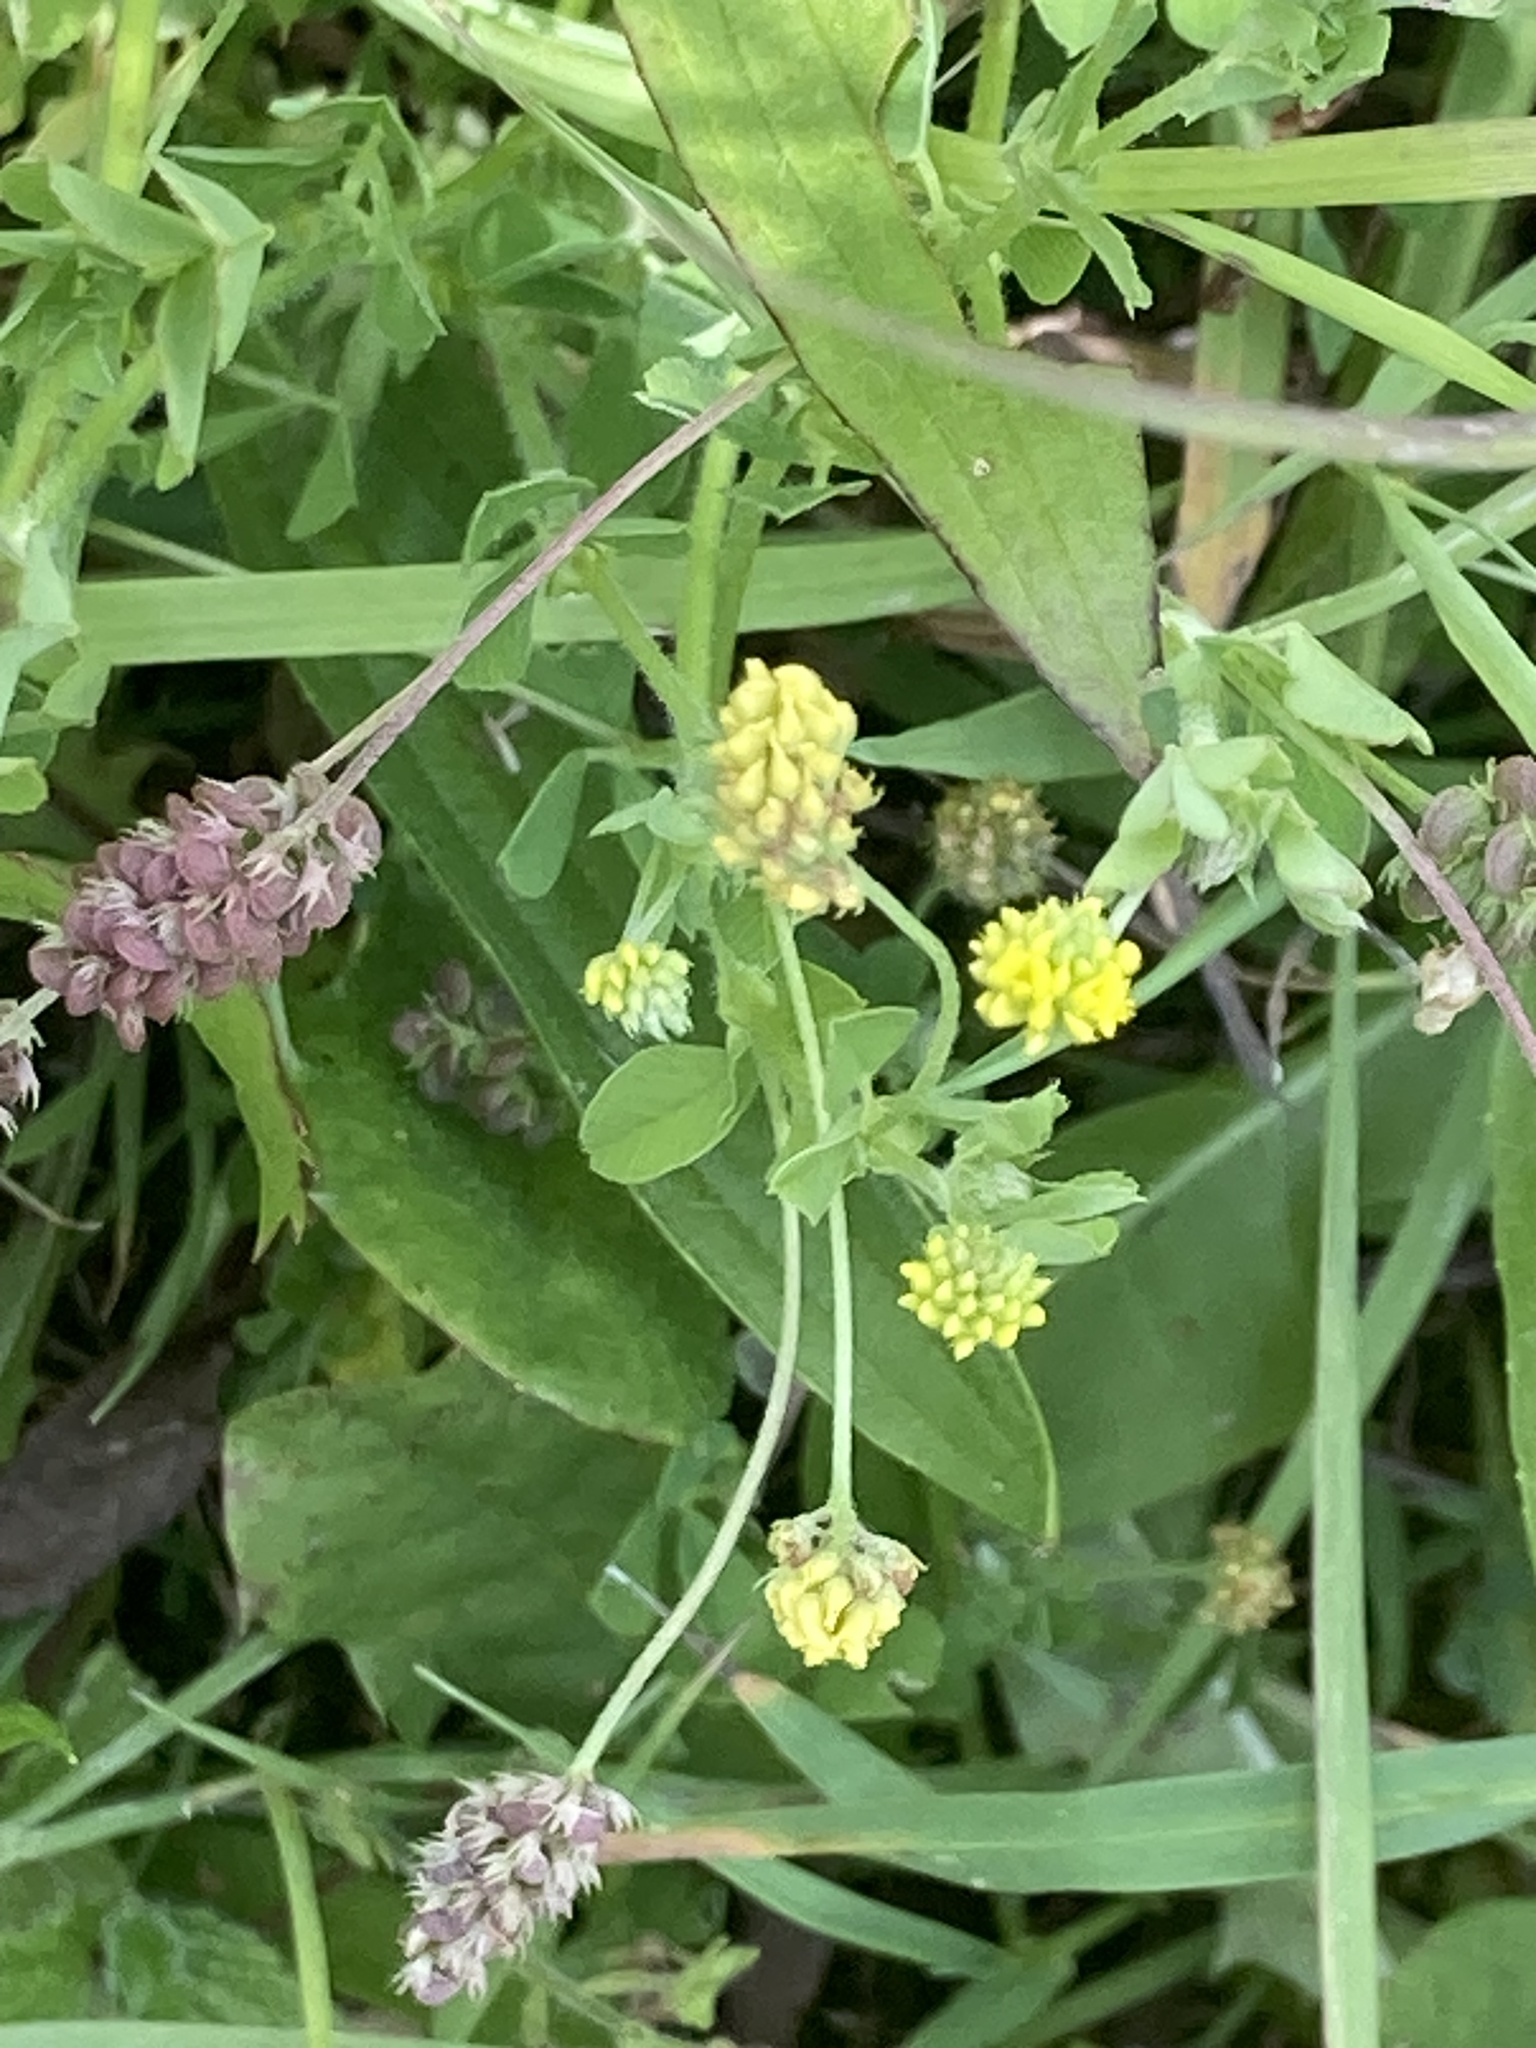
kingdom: Plantae
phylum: Tracheophyta
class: Magnoliopsida
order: Fabales
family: Fabaceae
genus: Trifolium
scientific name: Trifolium campestre
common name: Field clover
